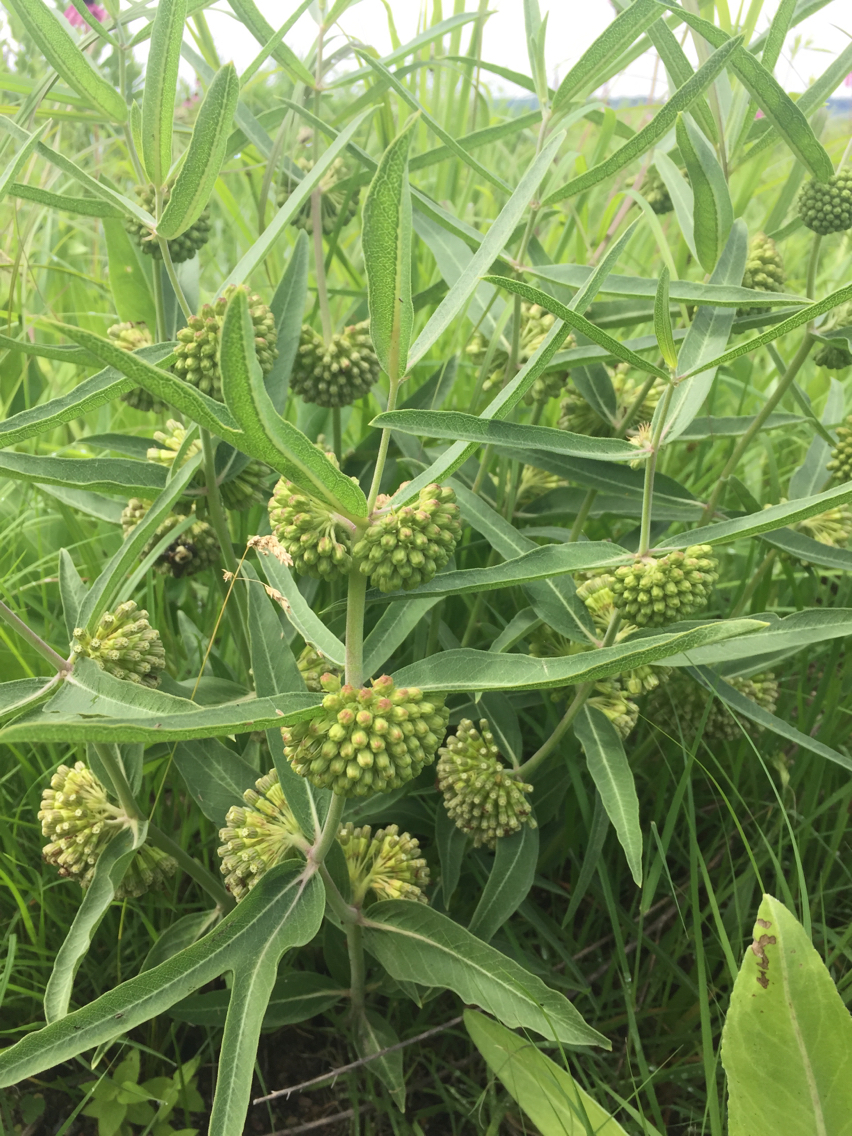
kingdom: Plantae
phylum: Tracheophyta
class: Magnoliopsida
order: Gentianales
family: Apocynaceae
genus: Asclepias
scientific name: Asclepias viridiflora
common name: Green comet milkweed
